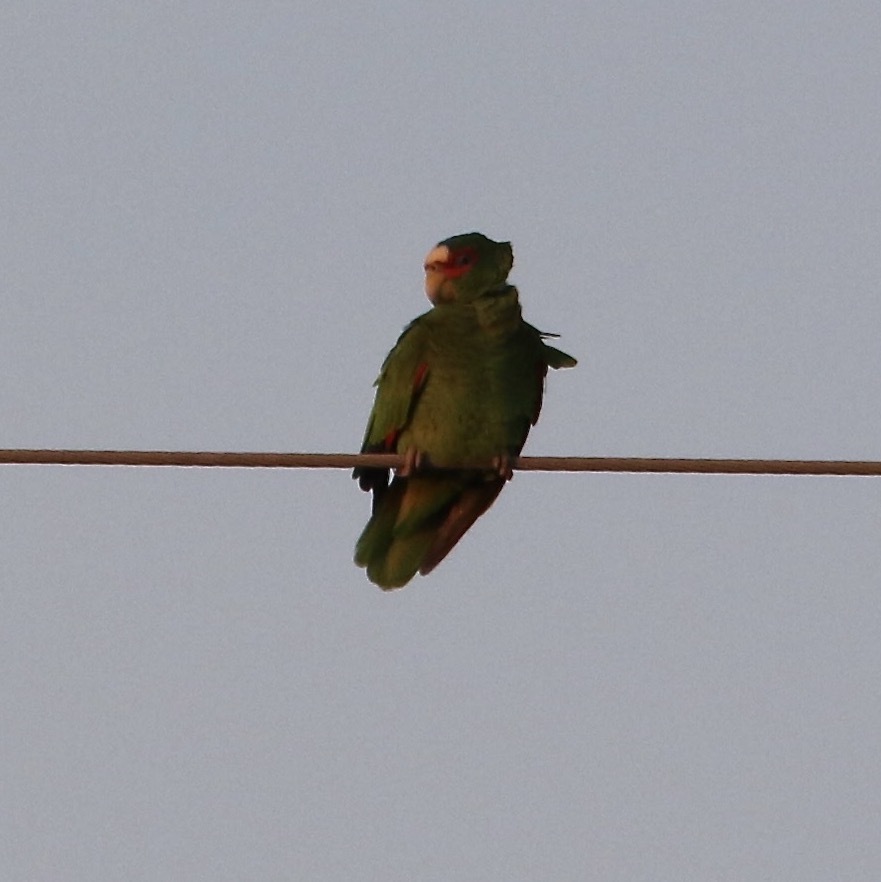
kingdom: Animalia
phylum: Chordata
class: Aves
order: Psittaciformes
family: Psittacidae
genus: Amazona
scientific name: Amazona albifrons
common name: White-fronted amazon
